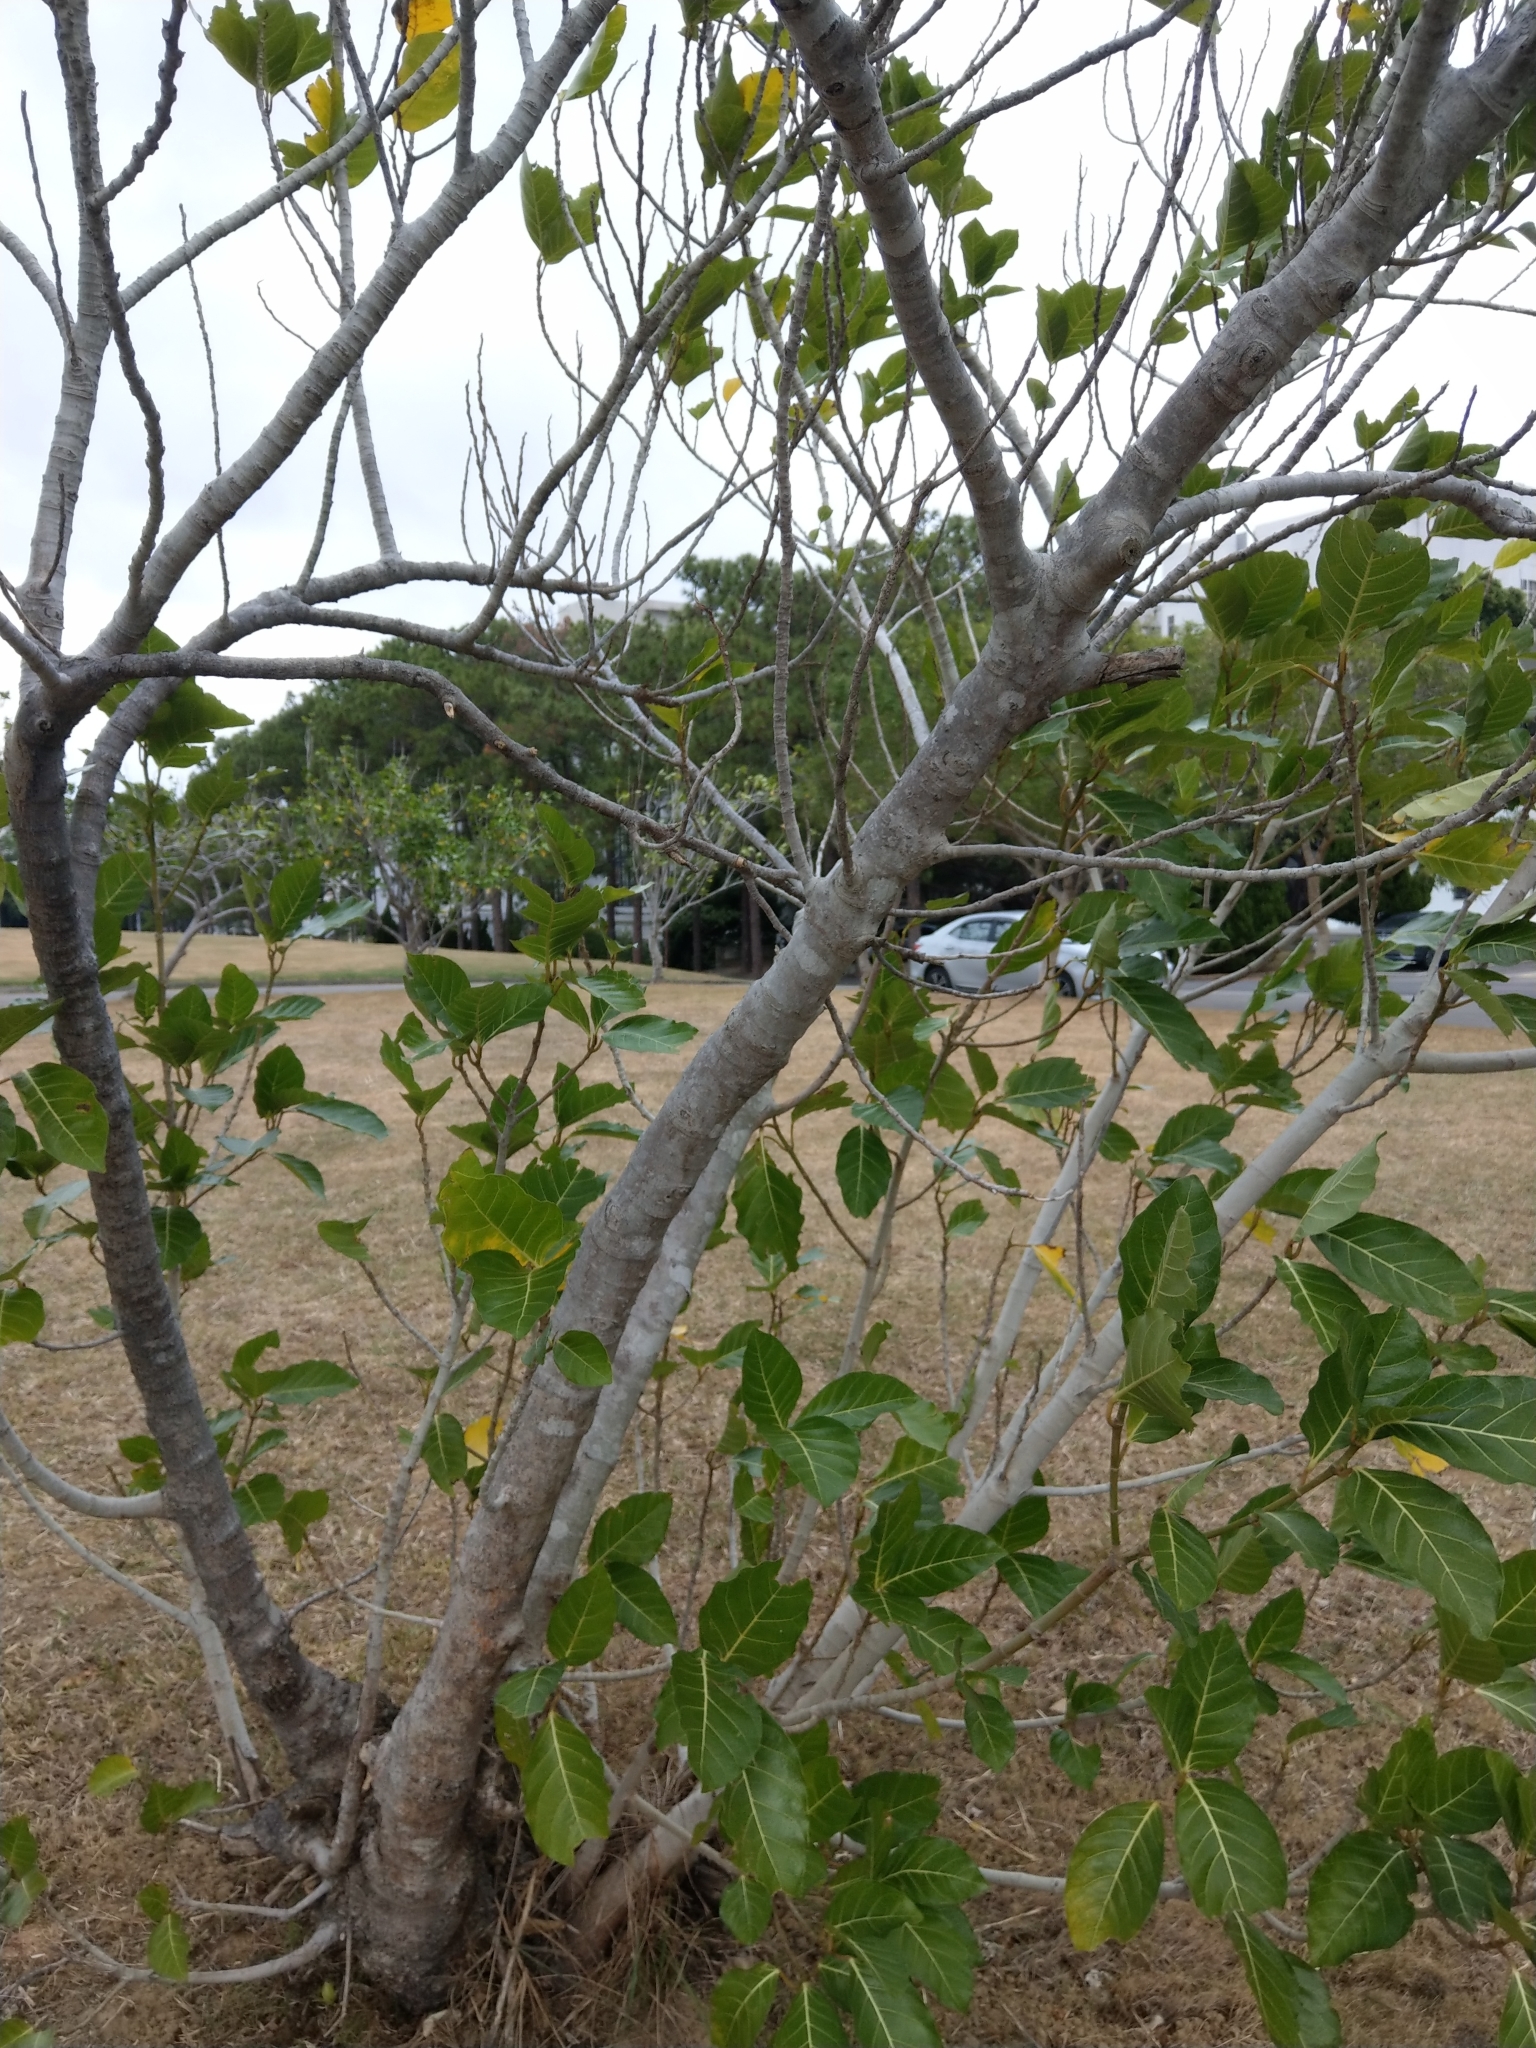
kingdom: Plantae
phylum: Tracheophyta
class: Magnoliopsida
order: Rosales
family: Moraceae
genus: Ficus
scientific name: Ficus septica
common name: Septic fig
